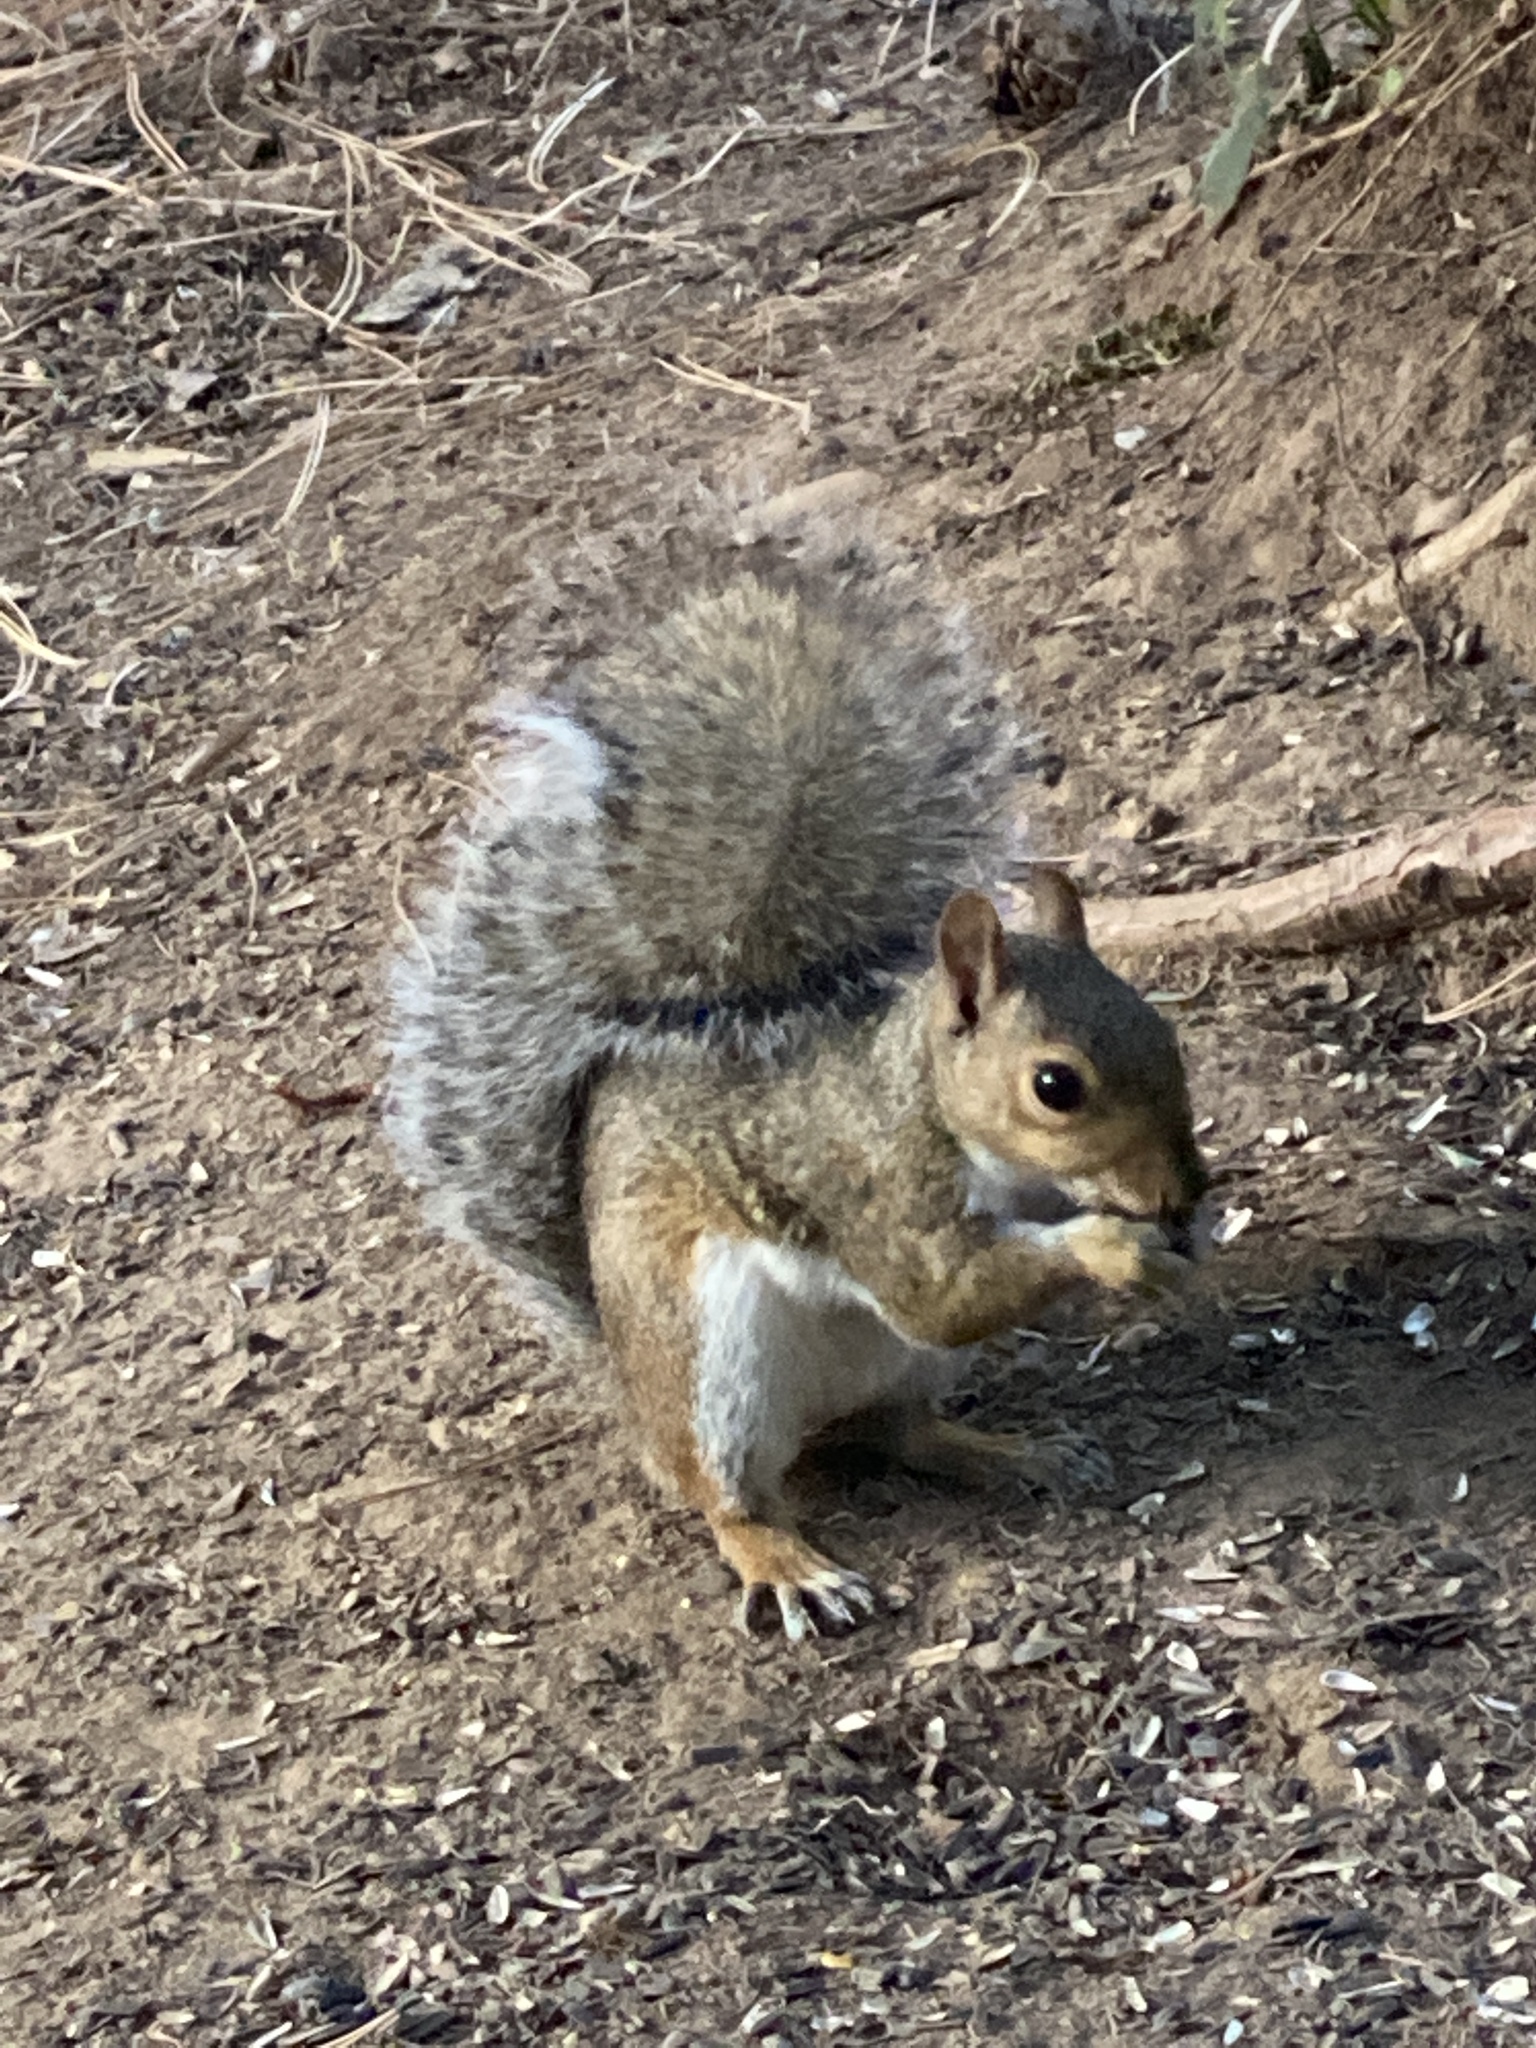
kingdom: Animalia
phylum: Chordata
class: Mammalia
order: Rodentia
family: Sciuridae
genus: Sciurus
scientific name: Sciurus carolinensis
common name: Eastern gray squirrel
